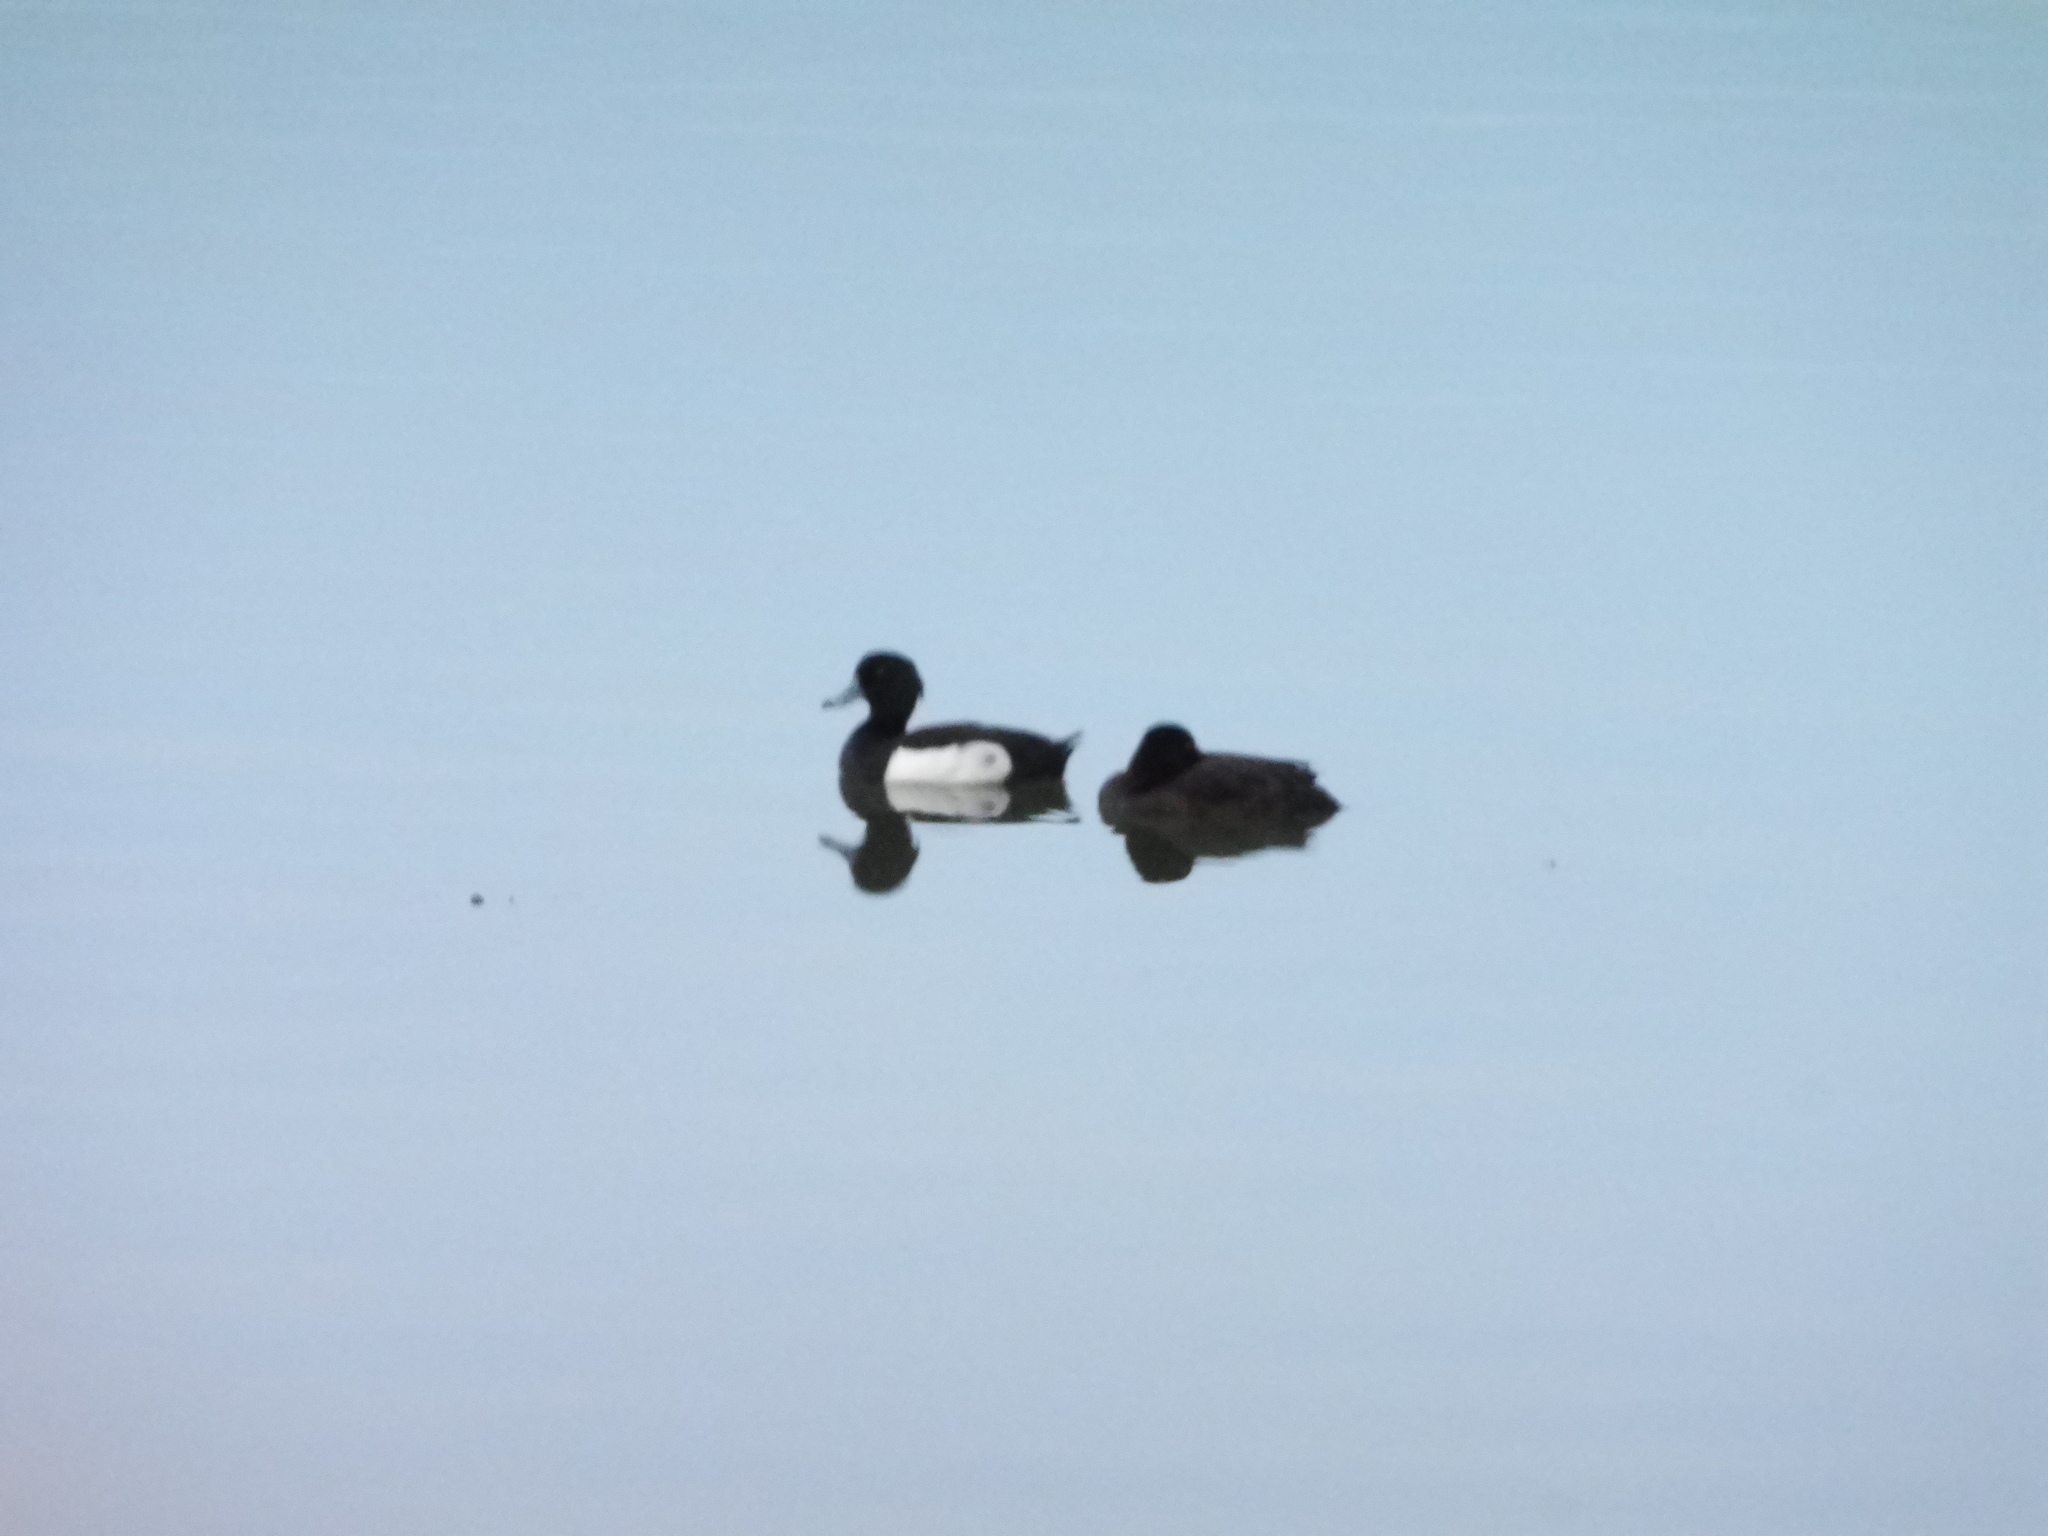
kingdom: Animalia
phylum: Chordata
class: Aves
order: Anseriformes
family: Anatidae
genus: Aythya
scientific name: Aythya fuligula
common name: Tufted duck
